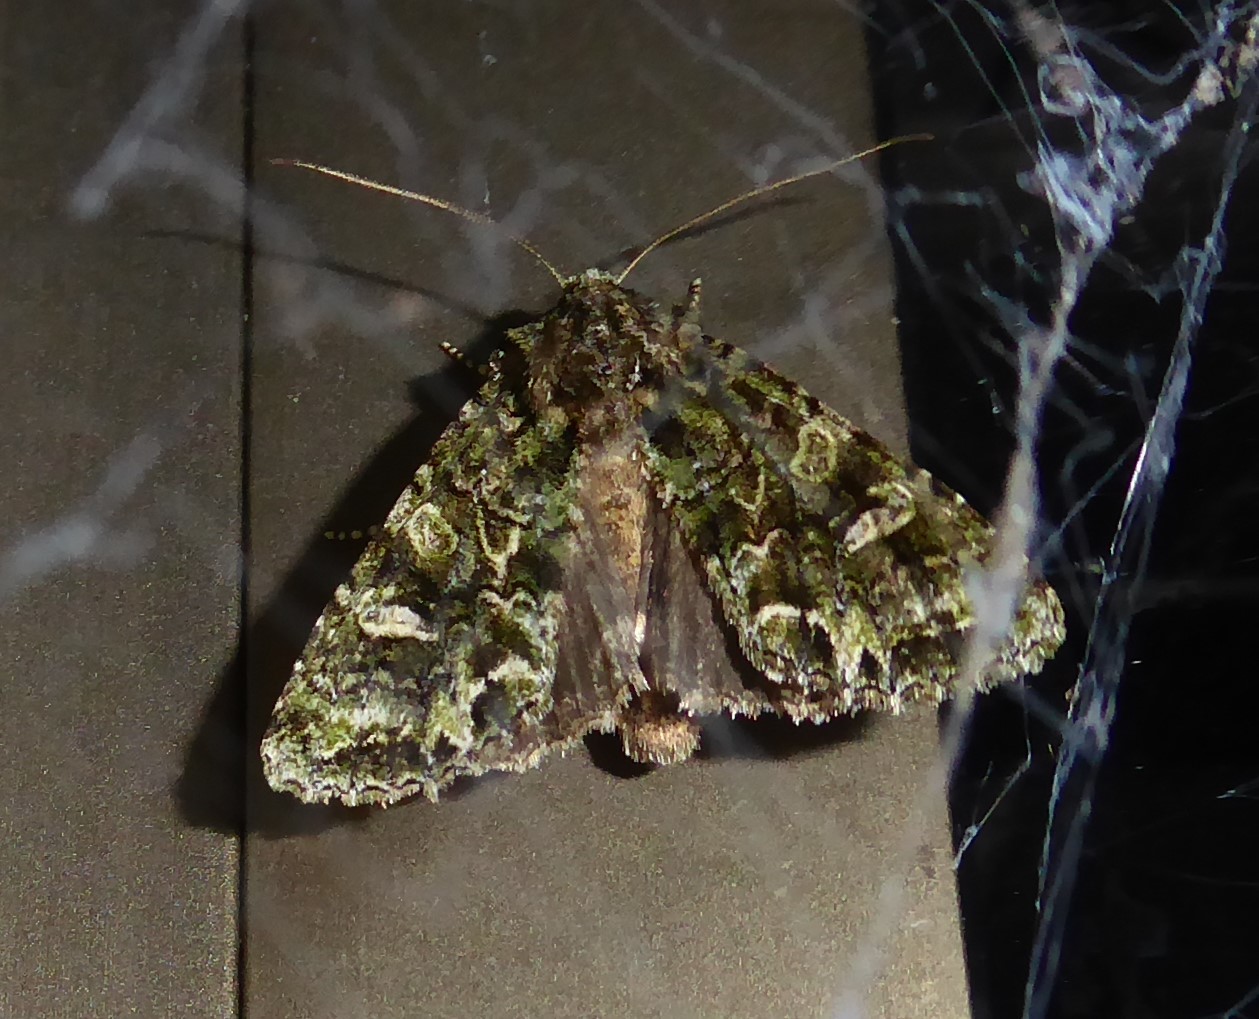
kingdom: Animalia
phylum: Arthropoda
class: Insecta
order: Lepidoptera
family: Noctuidae
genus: Ichneutica
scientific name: Ichneutica
